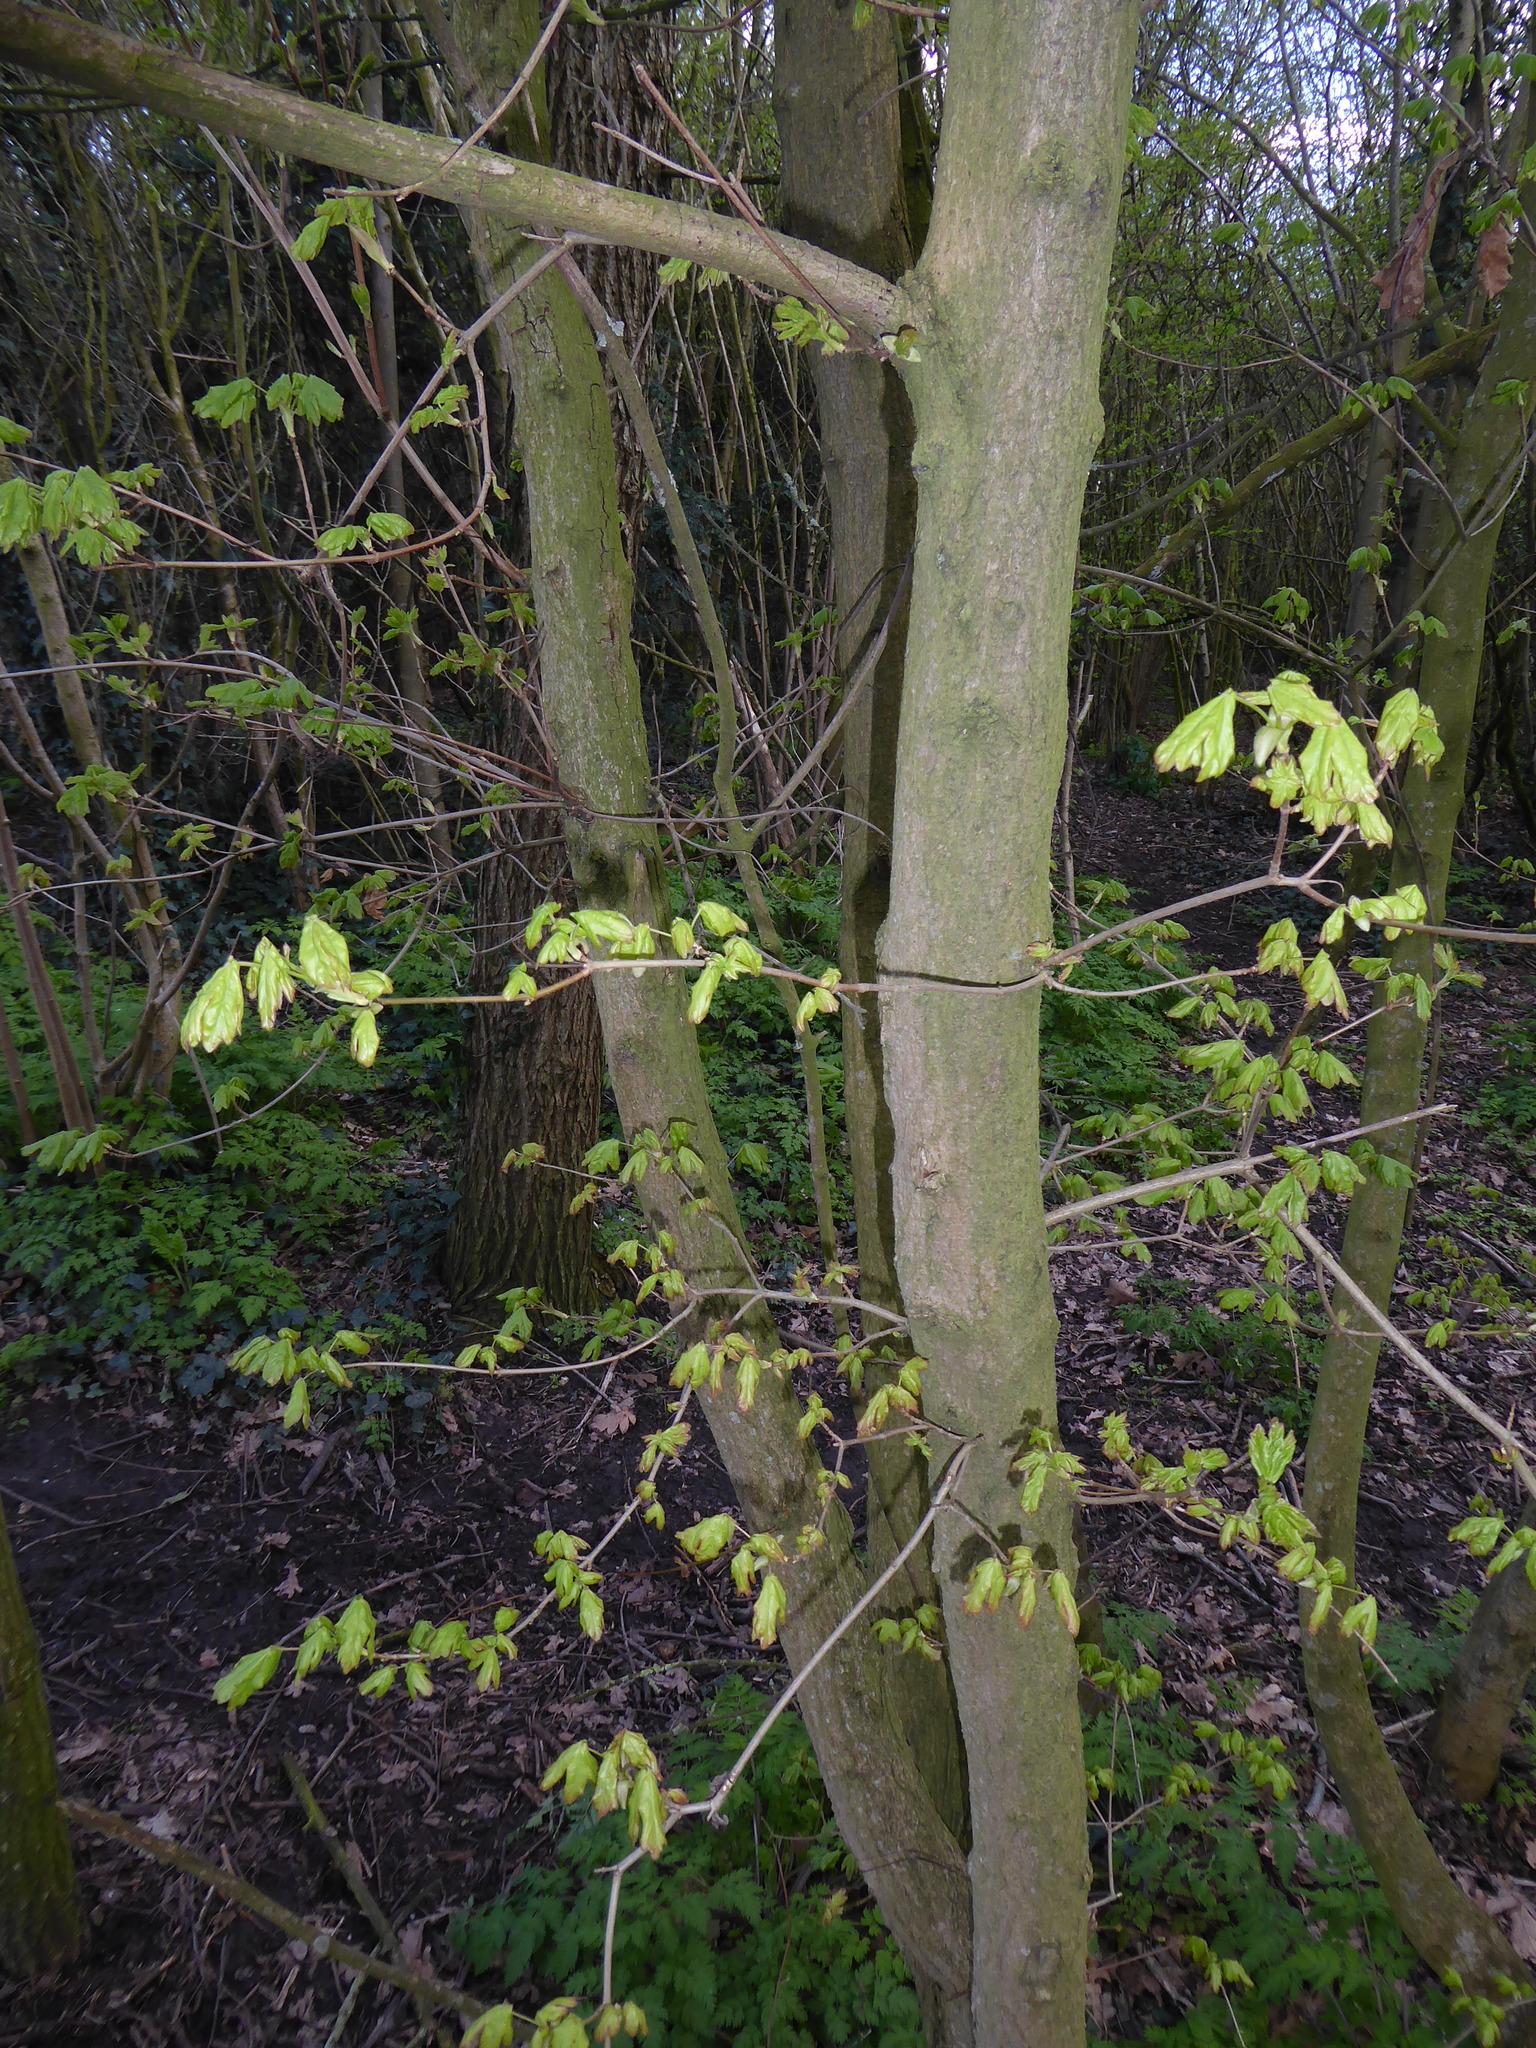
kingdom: Plantae
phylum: Tracheophyta
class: Magnoliopsida
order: Sapindales
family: Sapindaceae
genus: Acer
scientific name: Acer campestre
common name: Field maple
